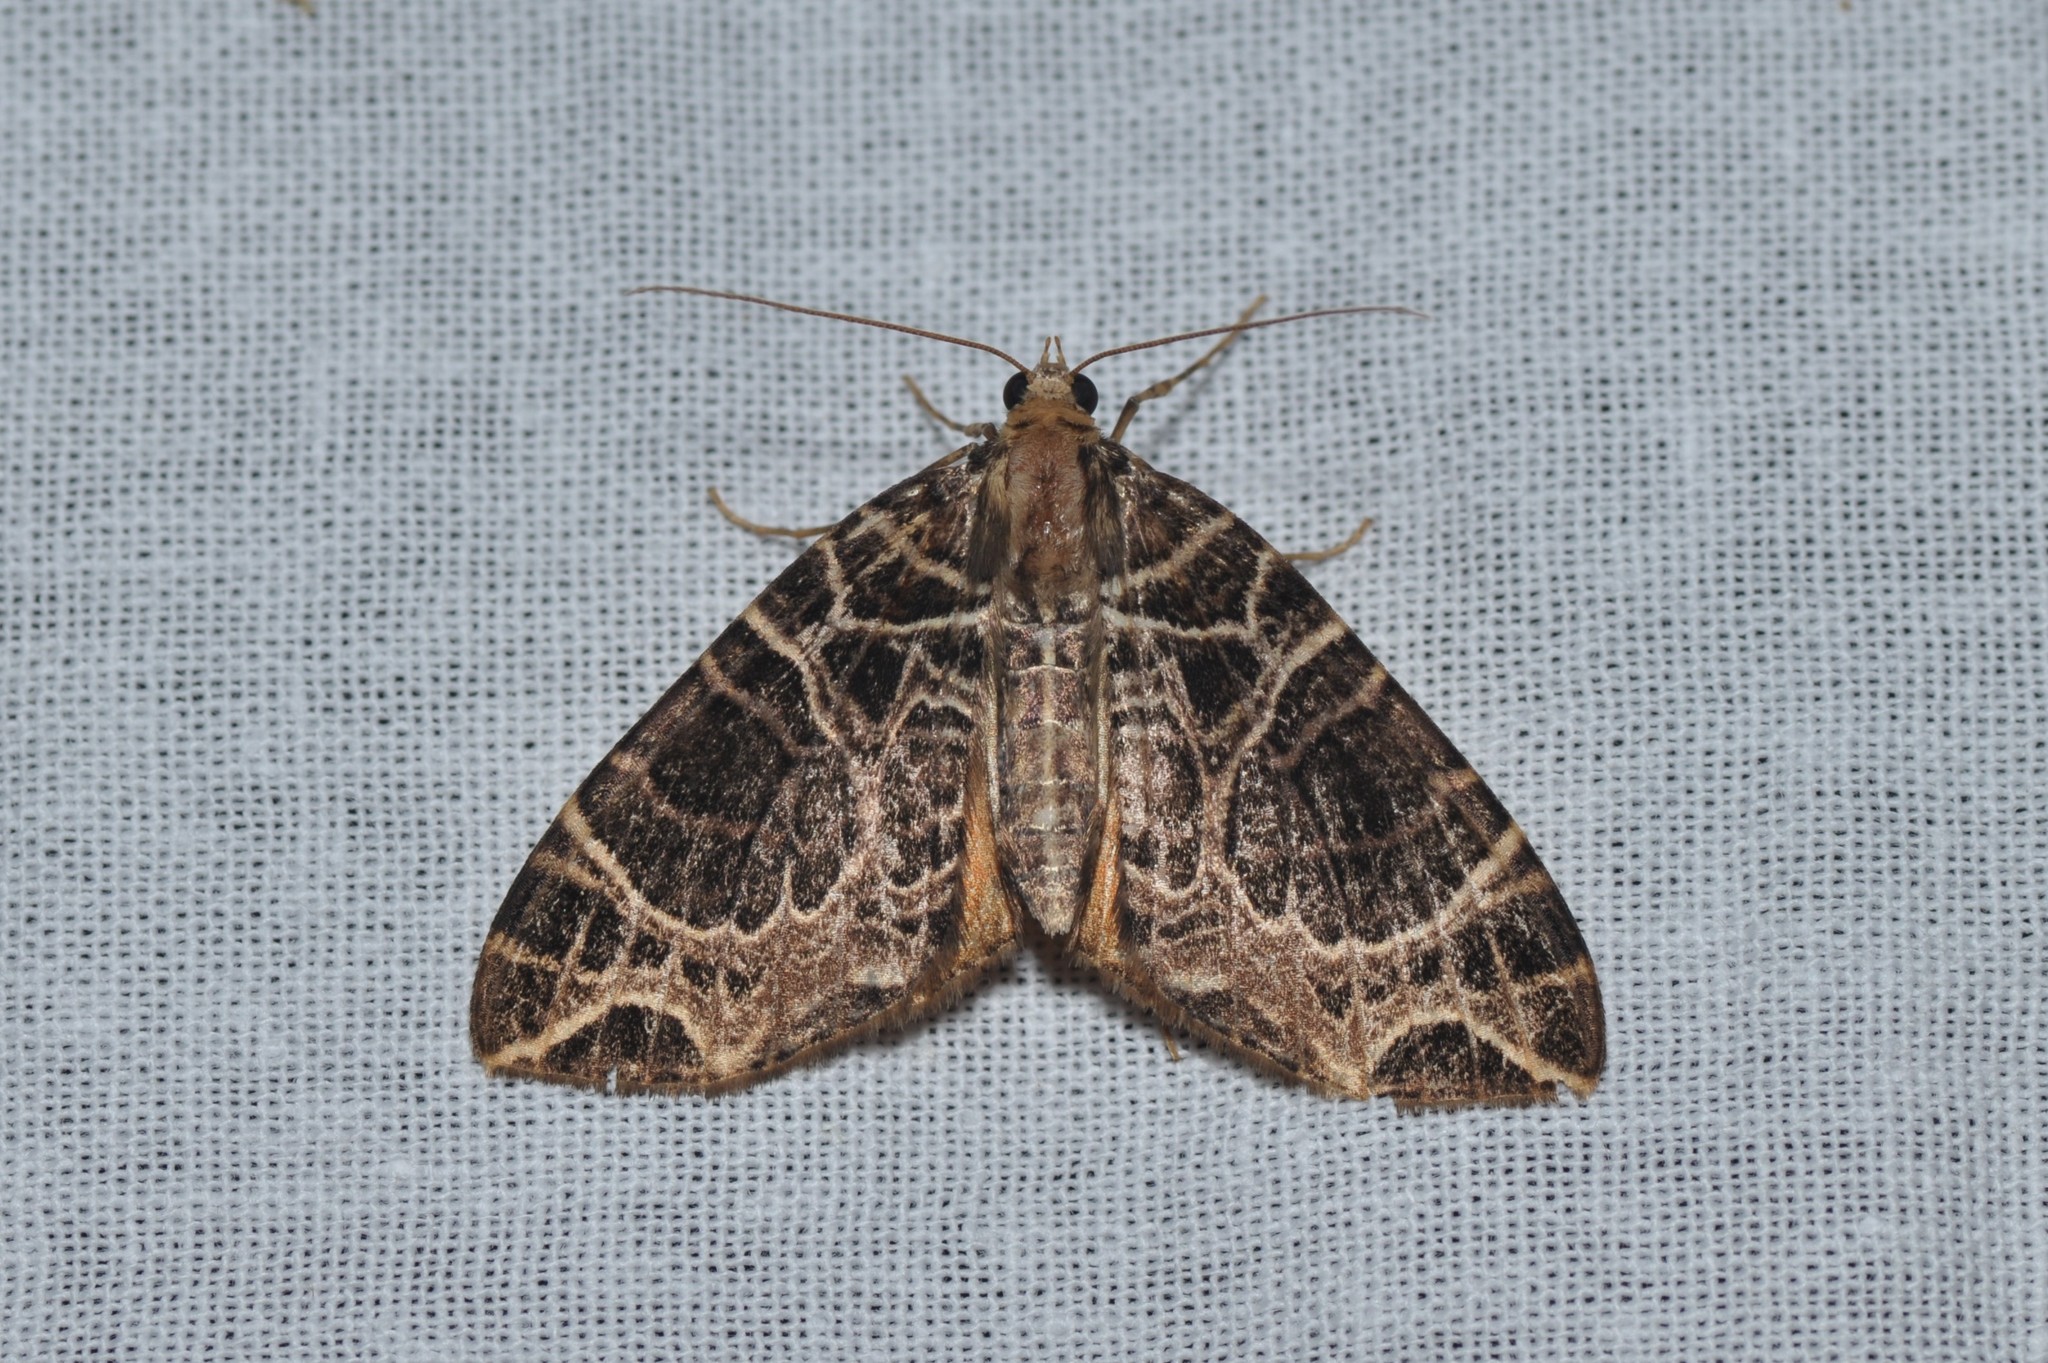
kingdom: Animalia
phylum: Arthropoda
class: Insecta
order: Lepidoptera
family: Geometridae
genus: Ecliptopera
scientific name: Ecliptopera thalycra
